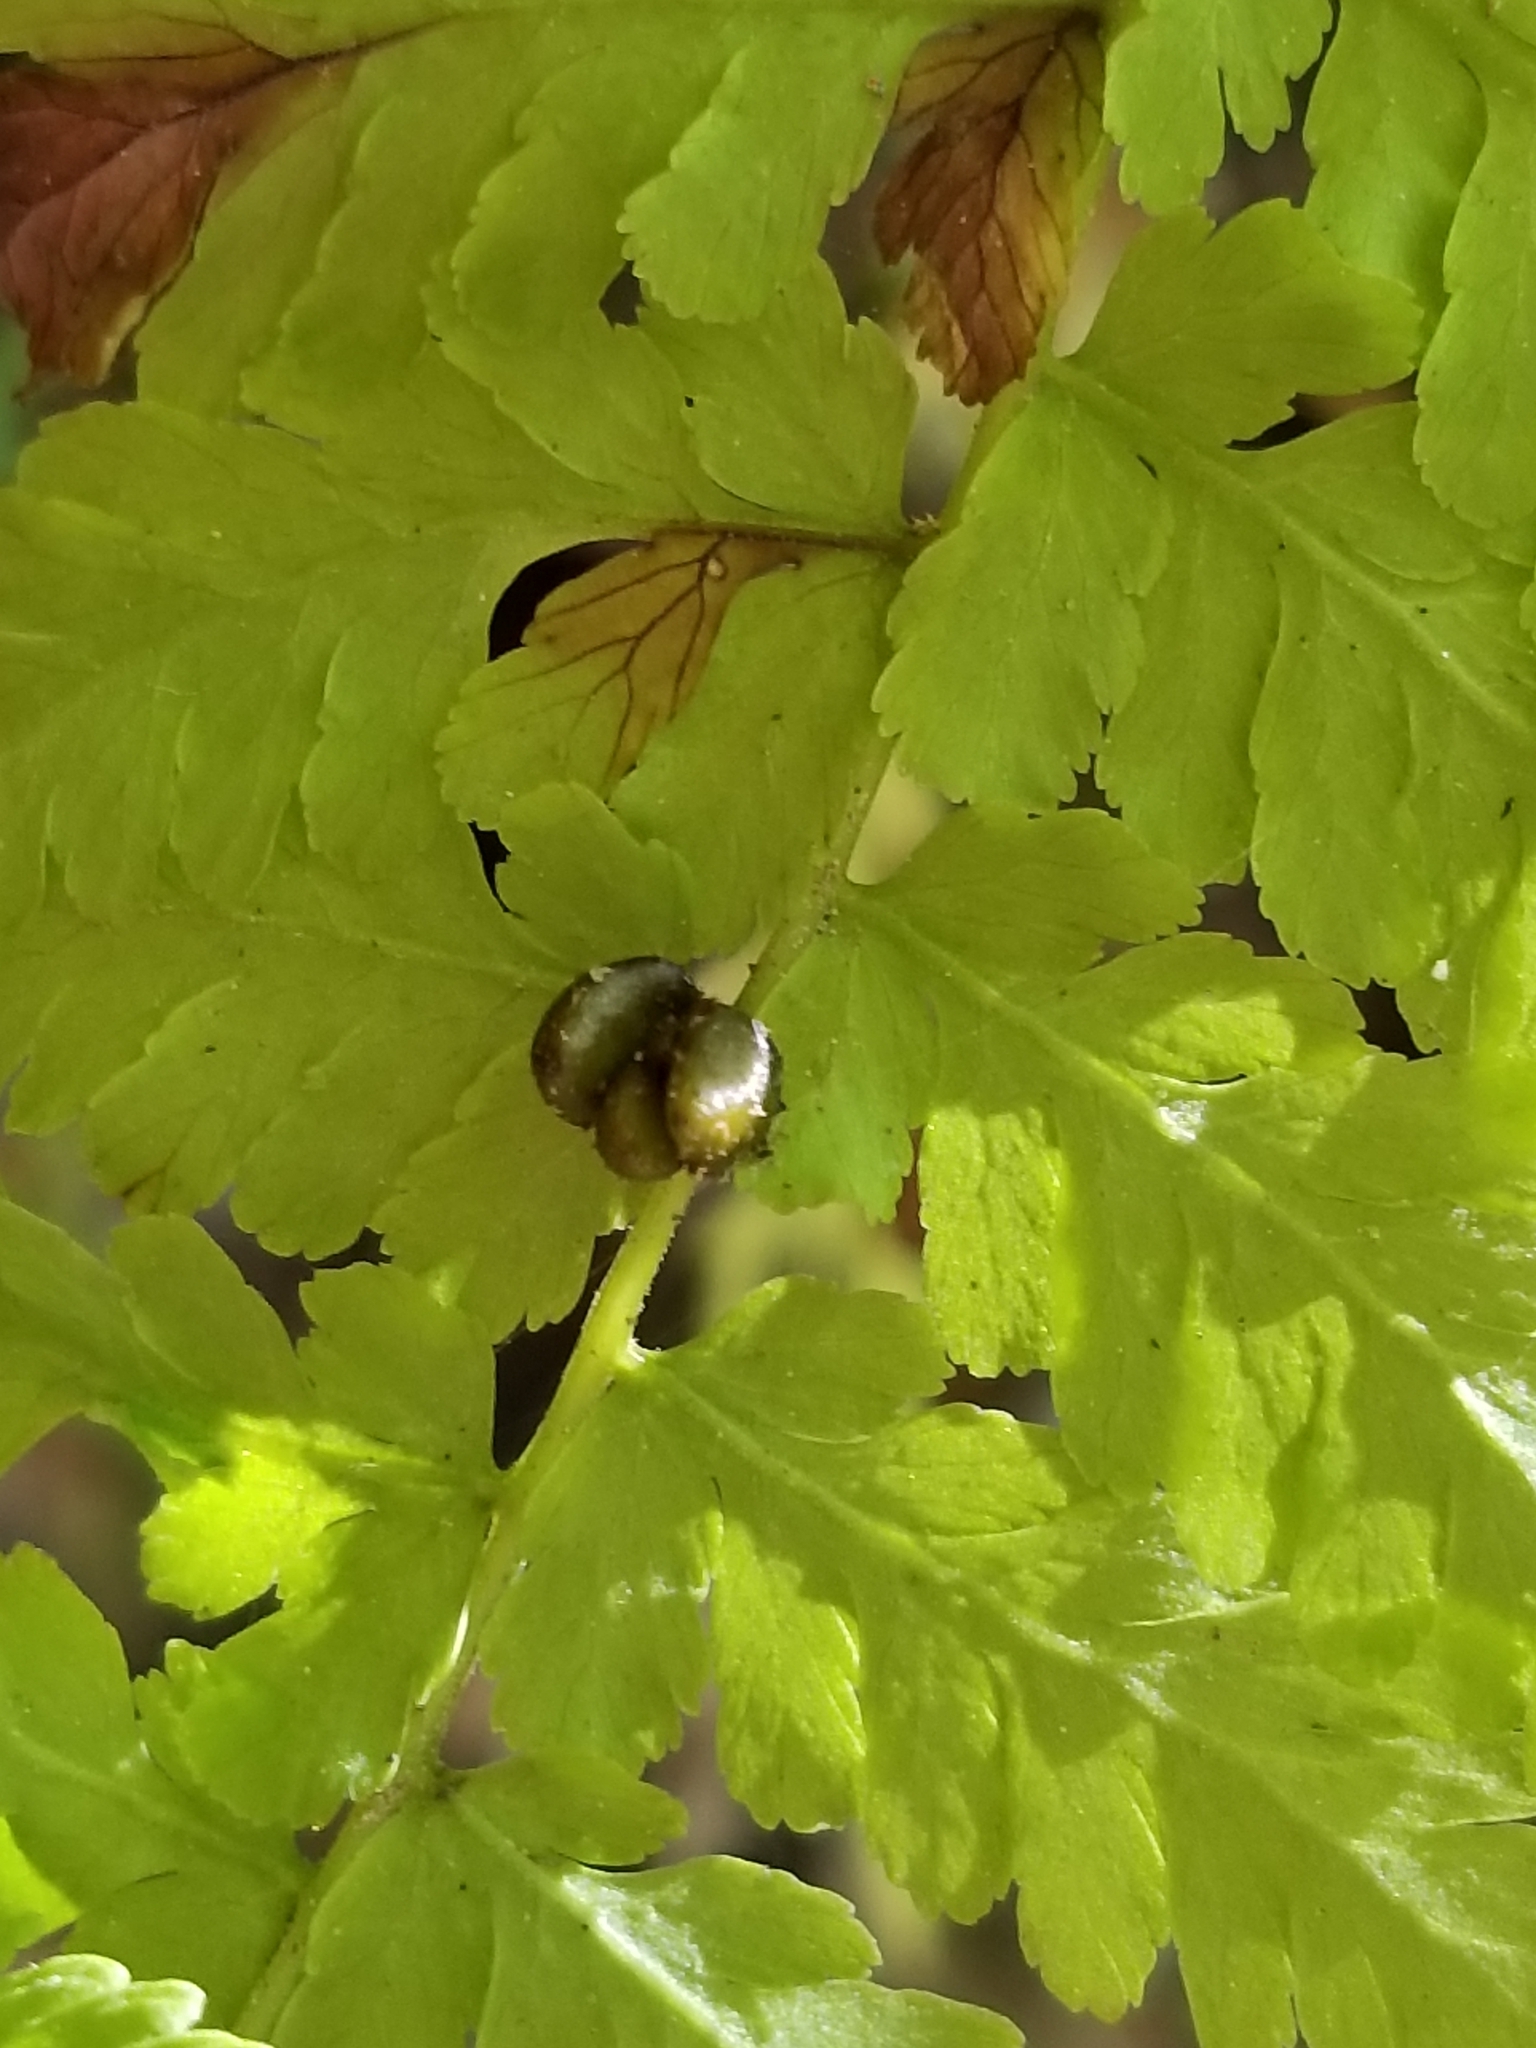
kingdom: Plantae
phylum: Tracheophyta
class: Polypodiopsida
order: Polypodiales
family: Cystopteridaceae
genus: Cystopteris
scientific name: Cystopteris bulbifera
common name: Bulblet bladder fern
